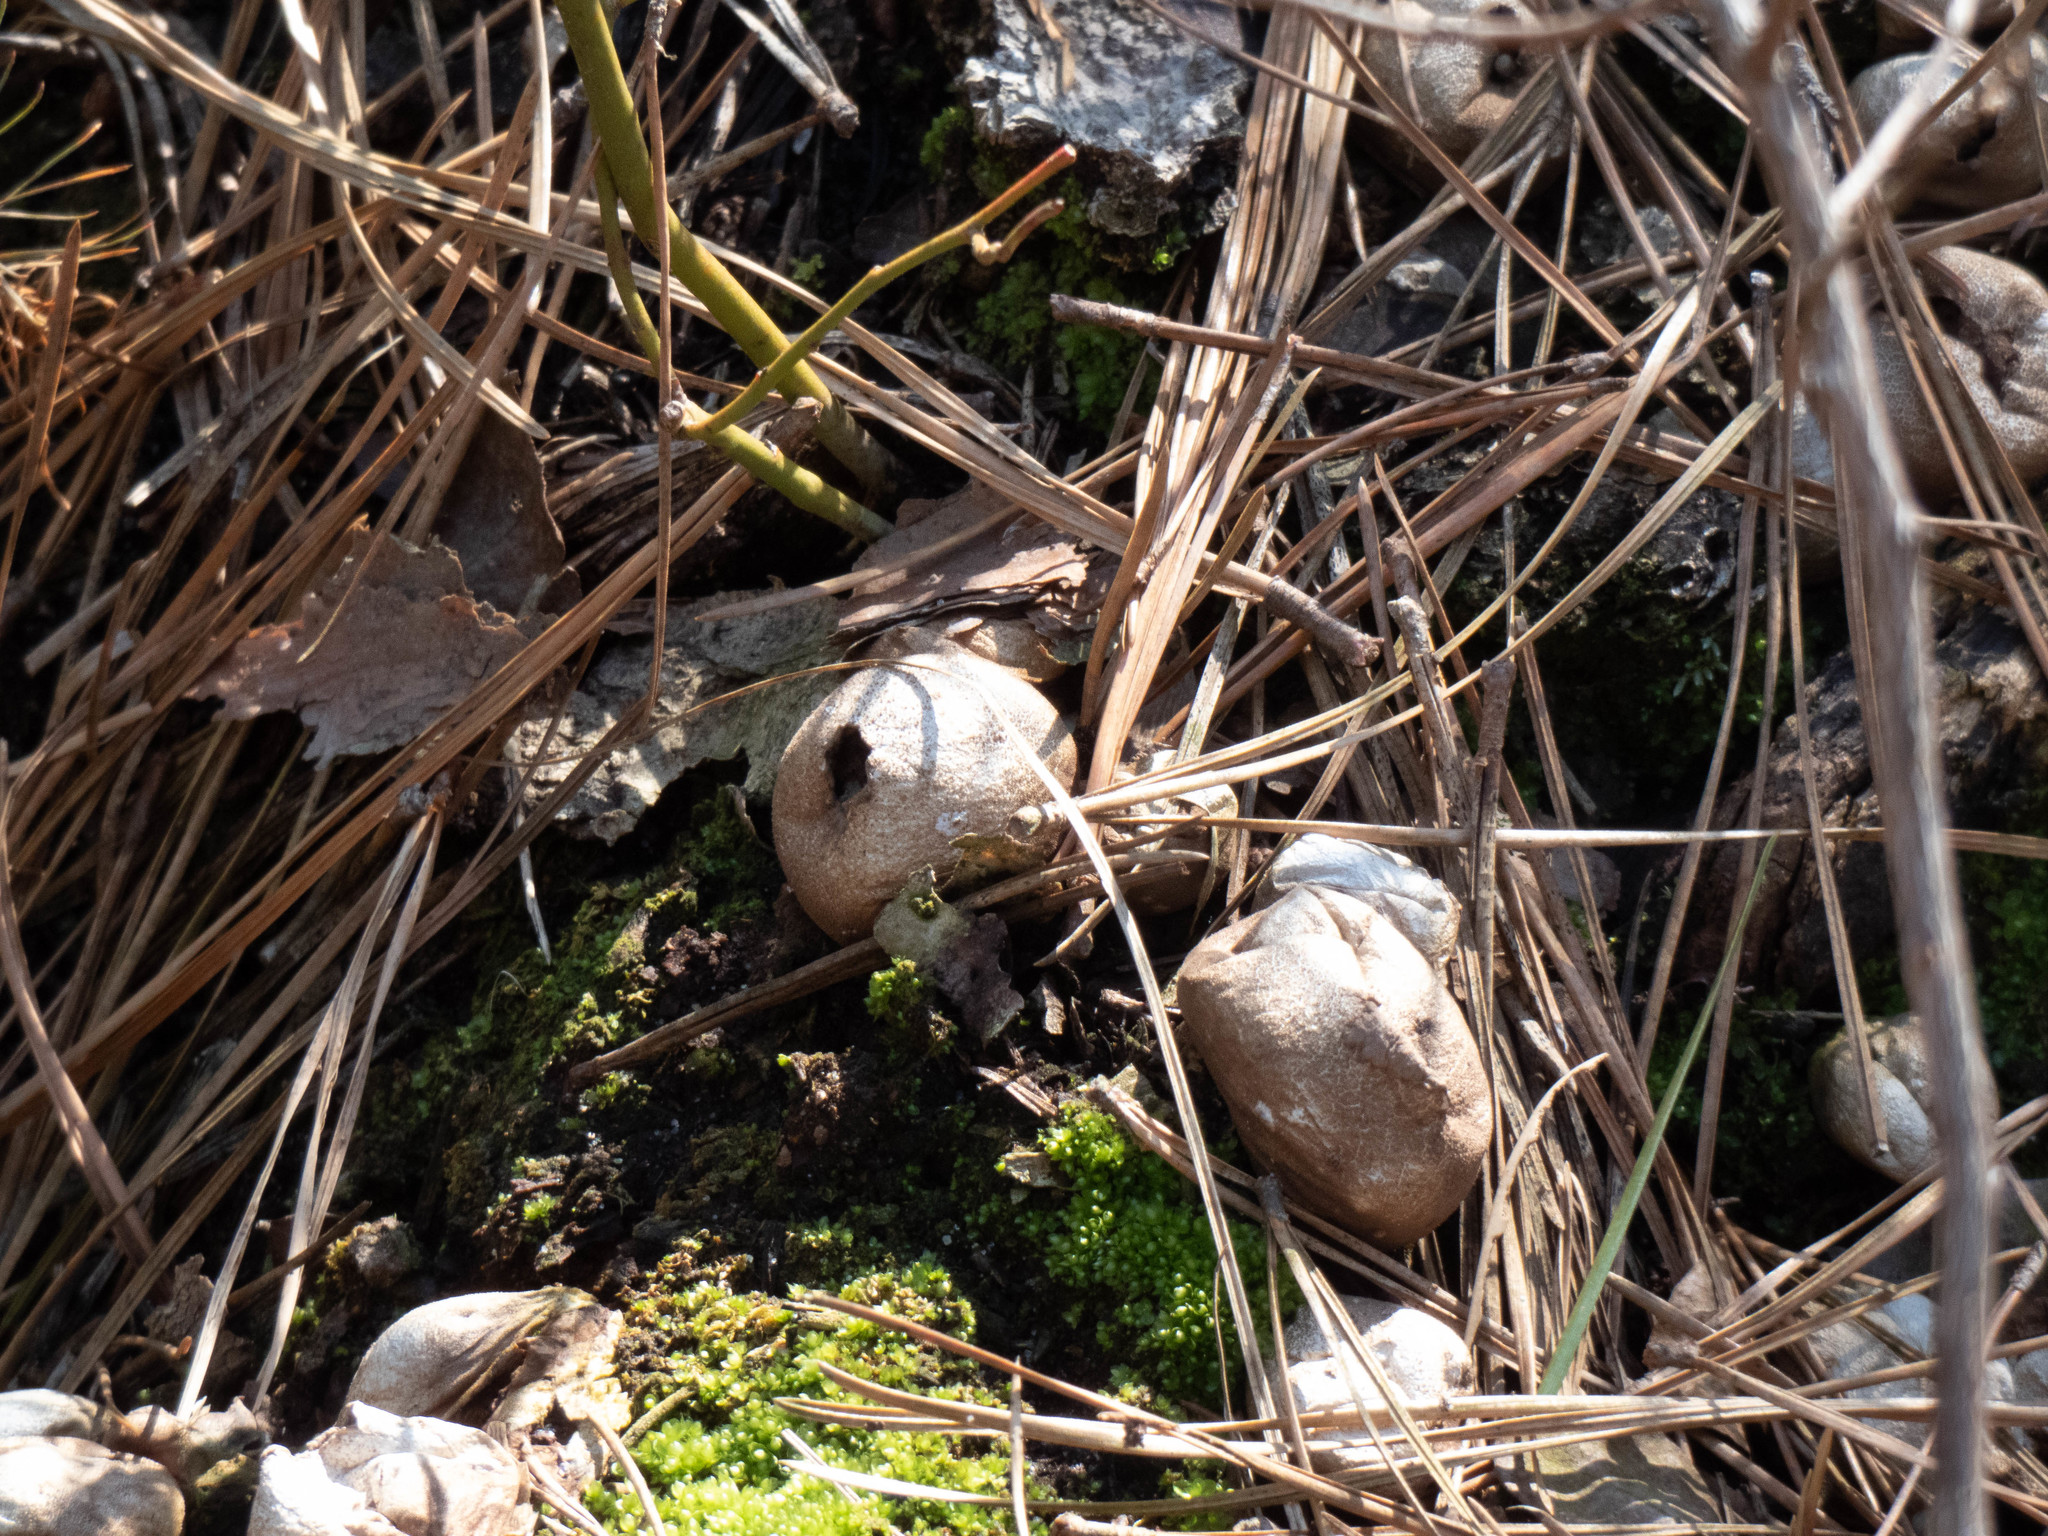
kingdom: Fungi
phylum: Basidiomycota
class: Agaricomycetes
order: Agaricales
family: Lycoperdaceae
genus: Apioperdon
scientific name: Apioperdon pyriforme
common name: Pear-shaped puffball
